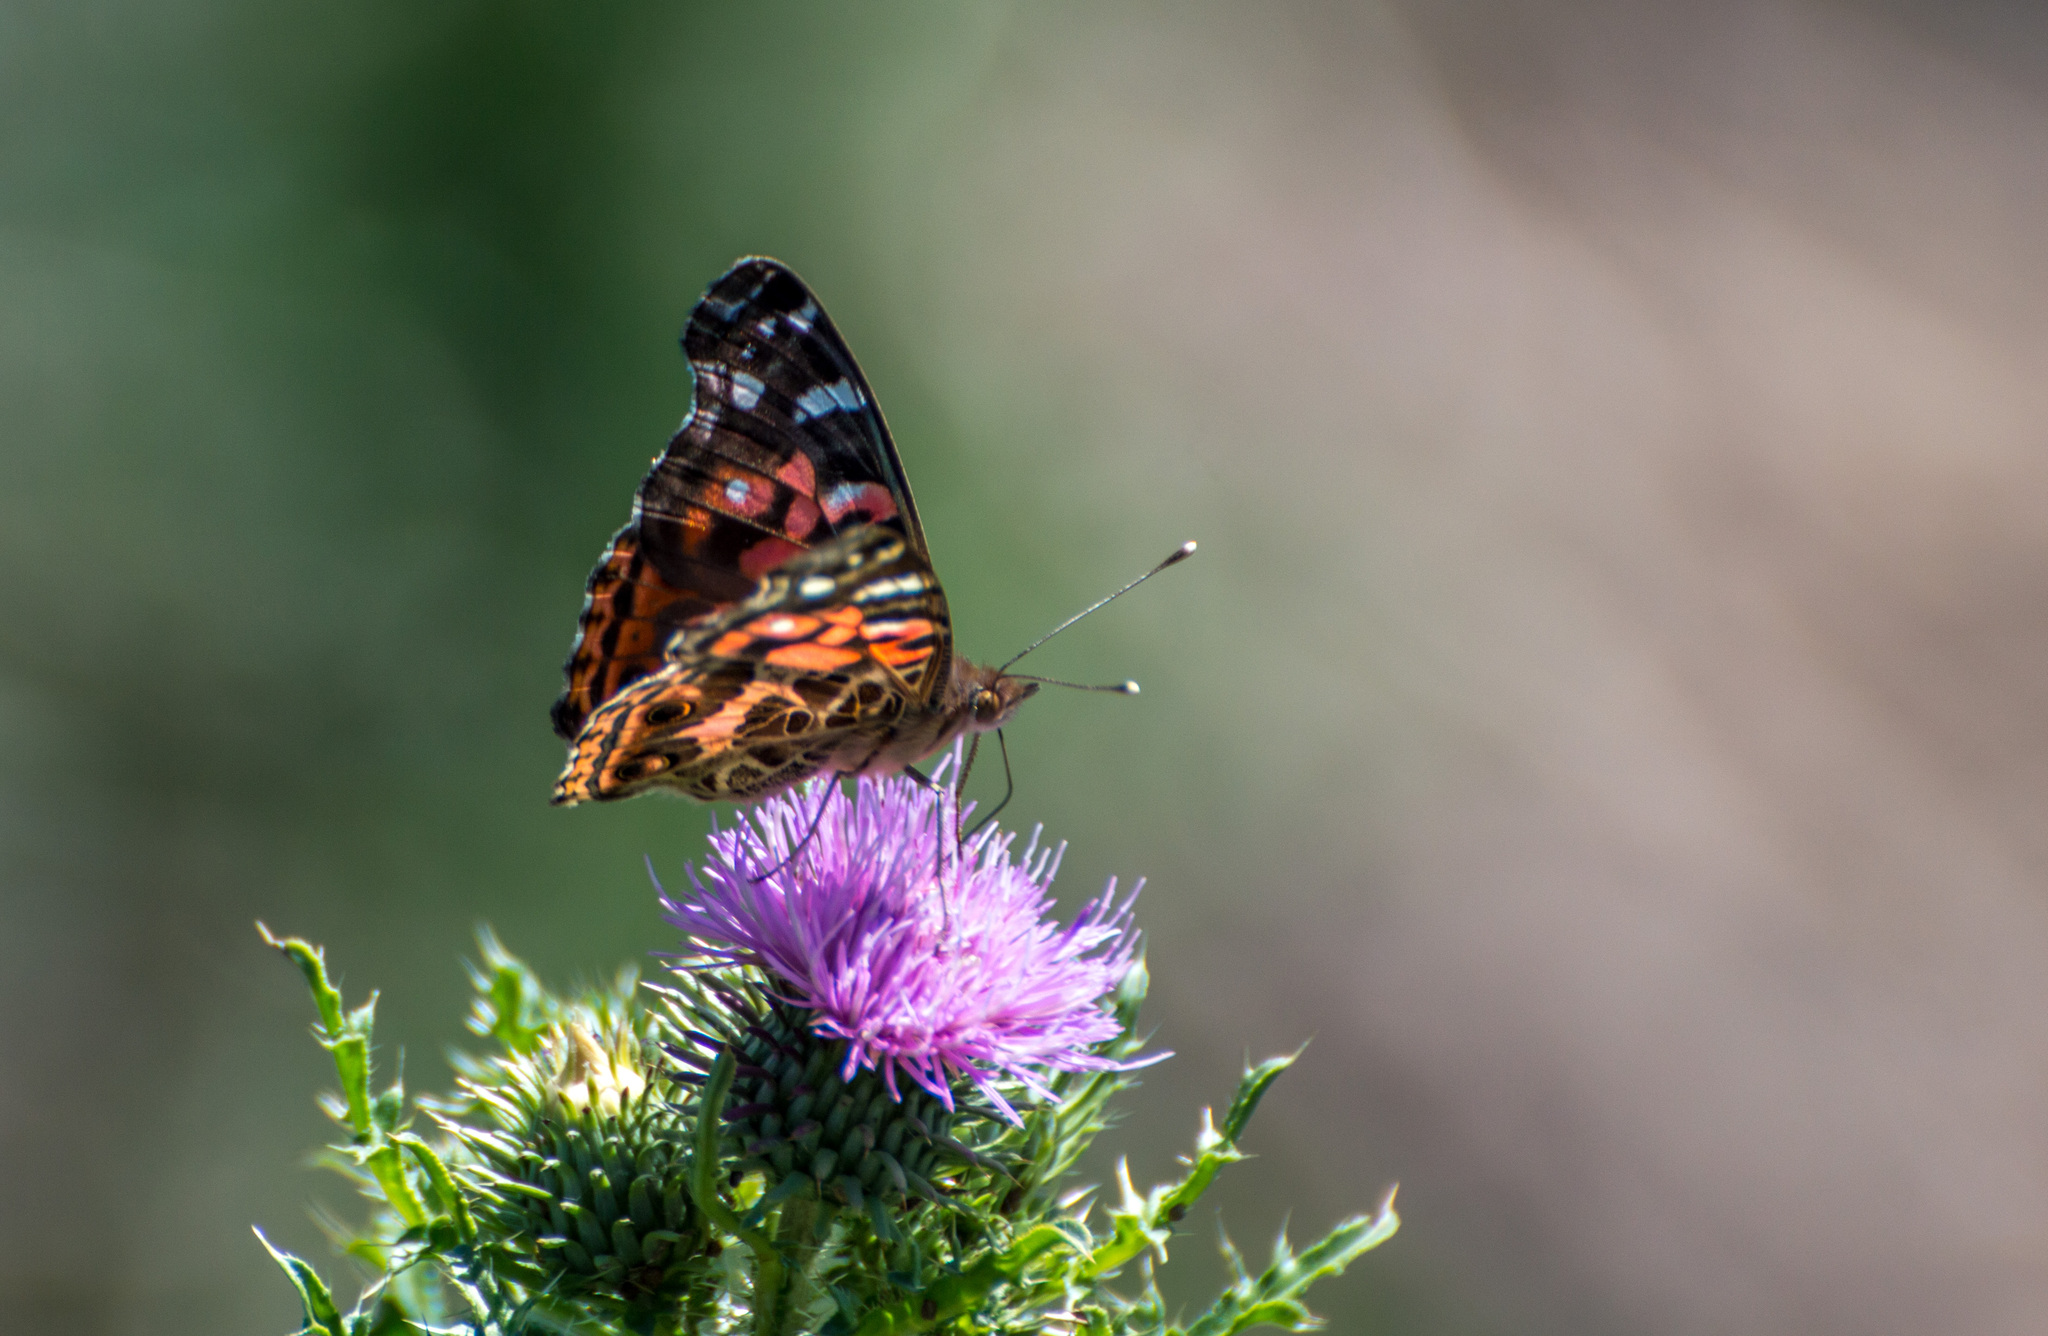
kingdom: Animalia
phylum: Arthropoda
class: Insecta
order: Lepidoptera
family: Nymphalidae
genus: Vanessa
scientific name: Vanessa braziliensis
